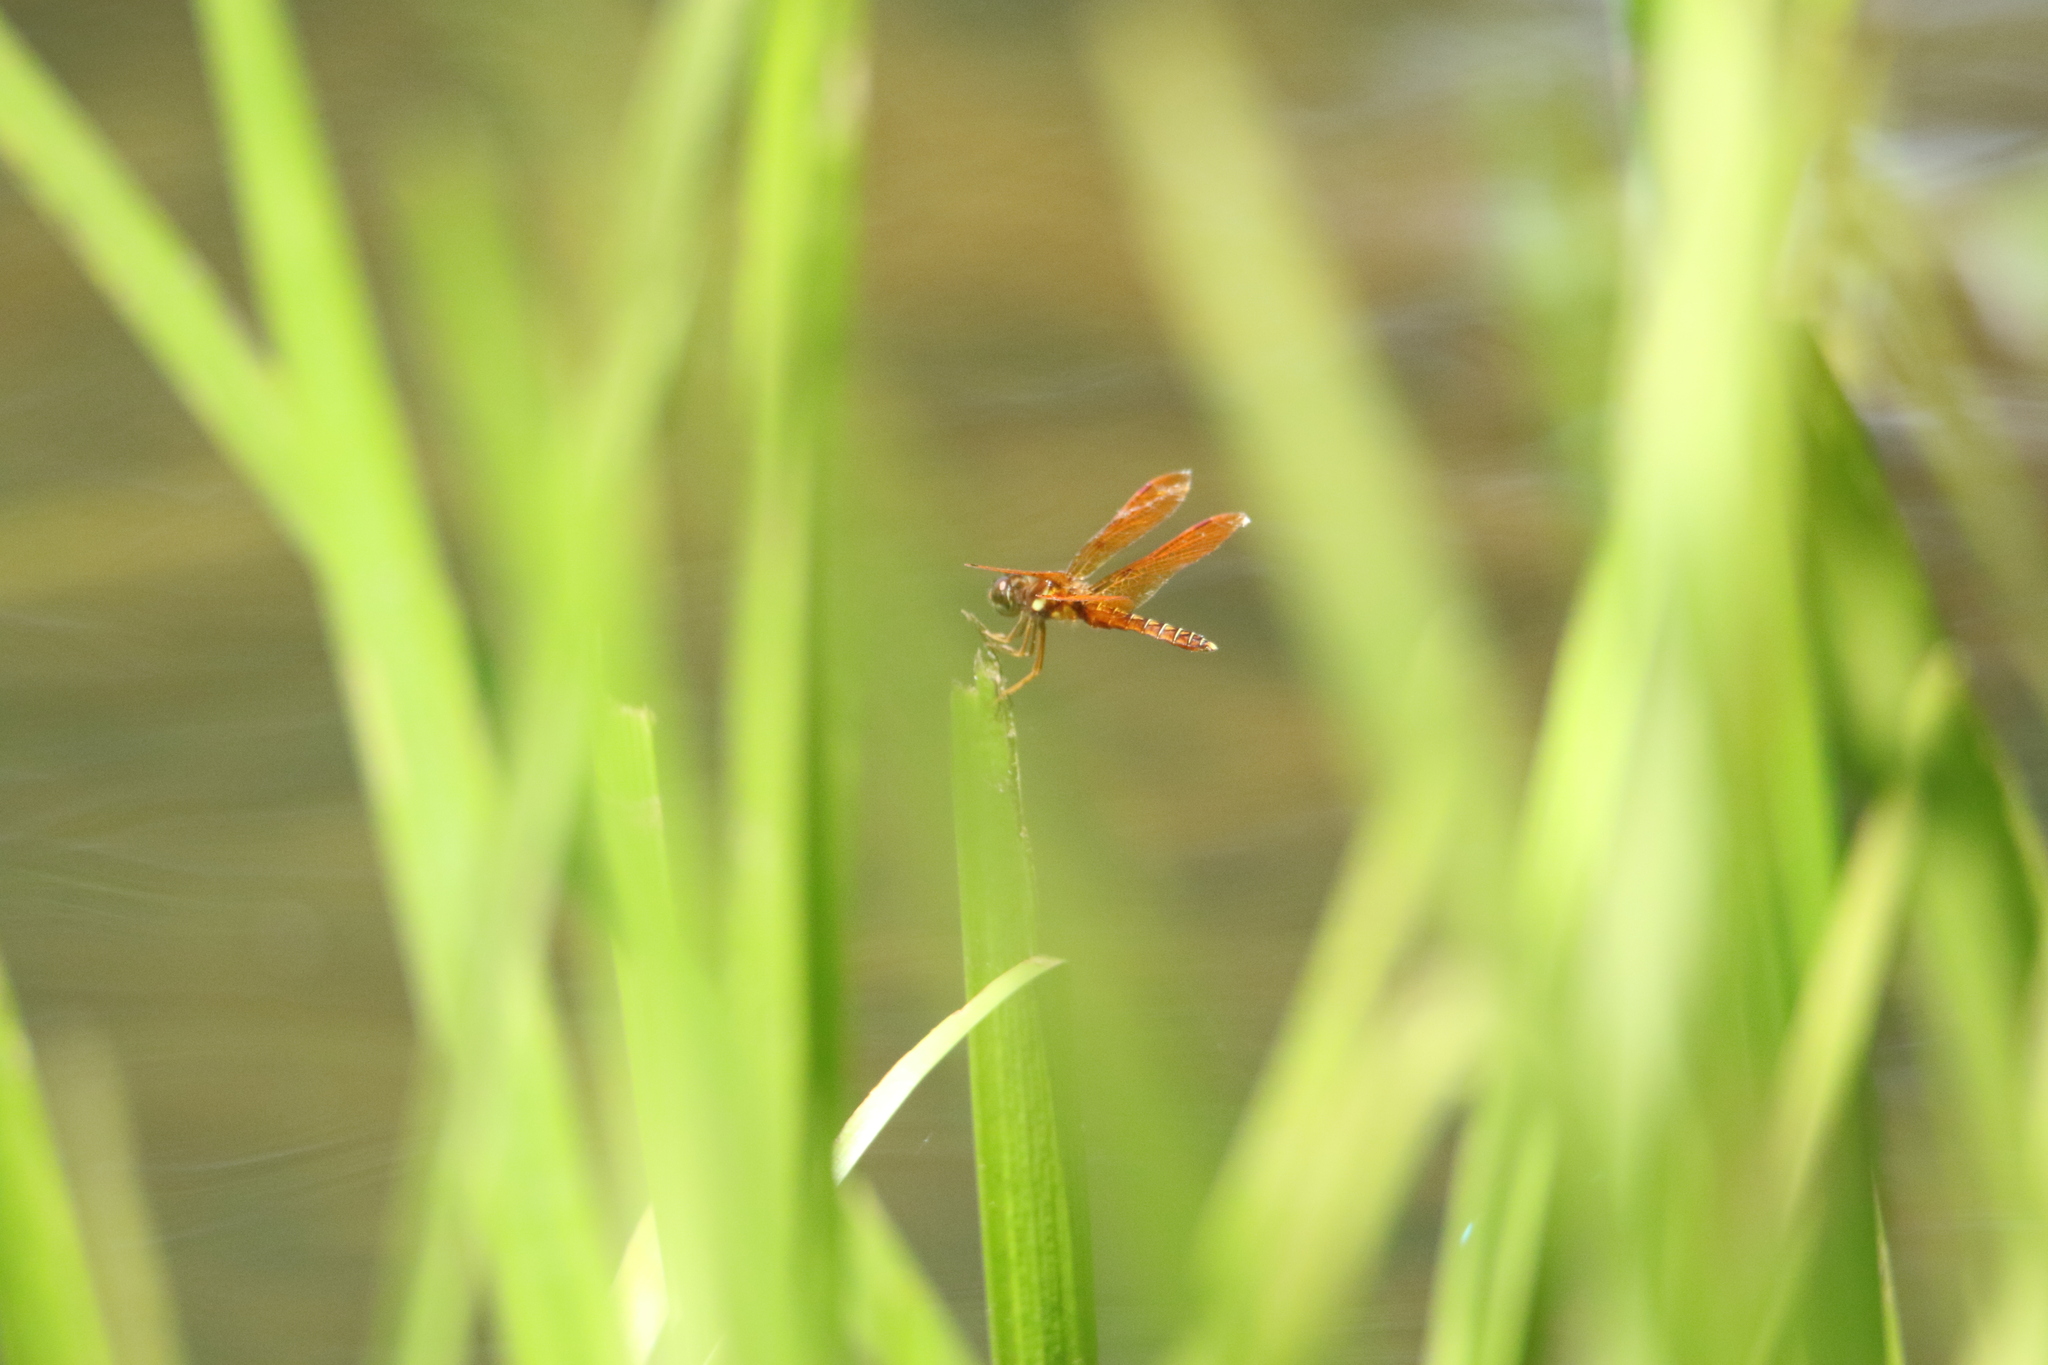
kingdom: Animalia
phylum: Arthropoda
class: Insecta
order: Odonata
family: Libellulidae
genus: Perithemis
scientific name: Perithemis tenera
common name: Eastern amberwing
